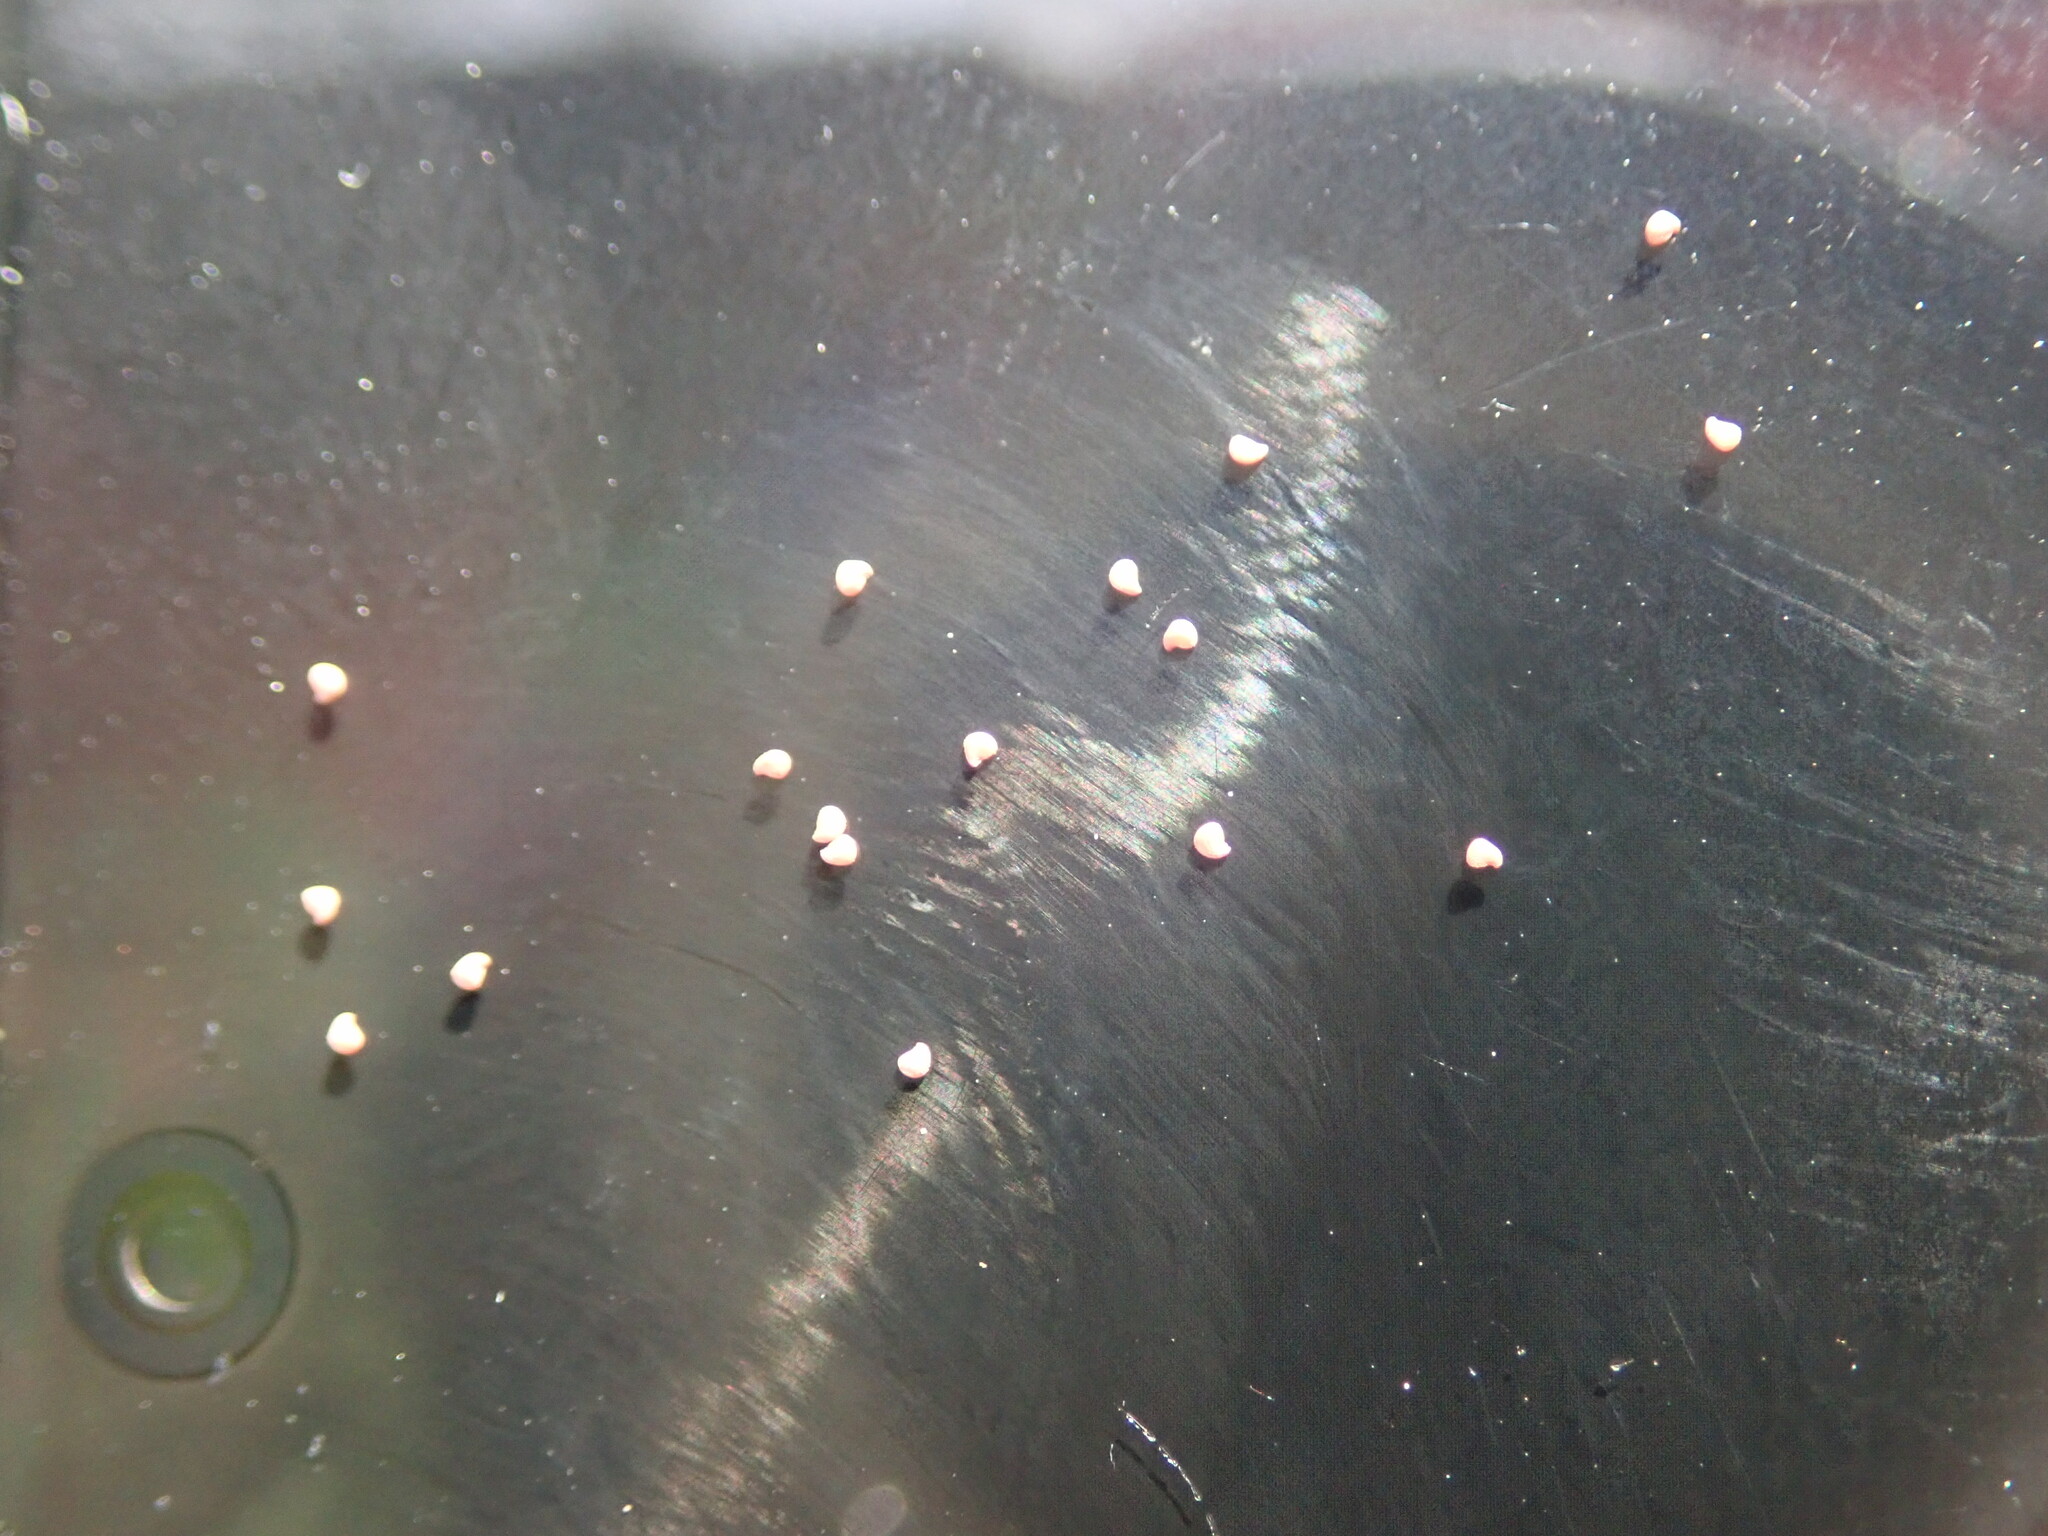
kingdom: Plantae
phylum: Tracheophyta
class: Magnoliopsida
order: Caryophyllales
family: Caryophyllaceae
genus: Spergularia
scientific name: Spergularia rubra
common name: Red sand-spurrey
